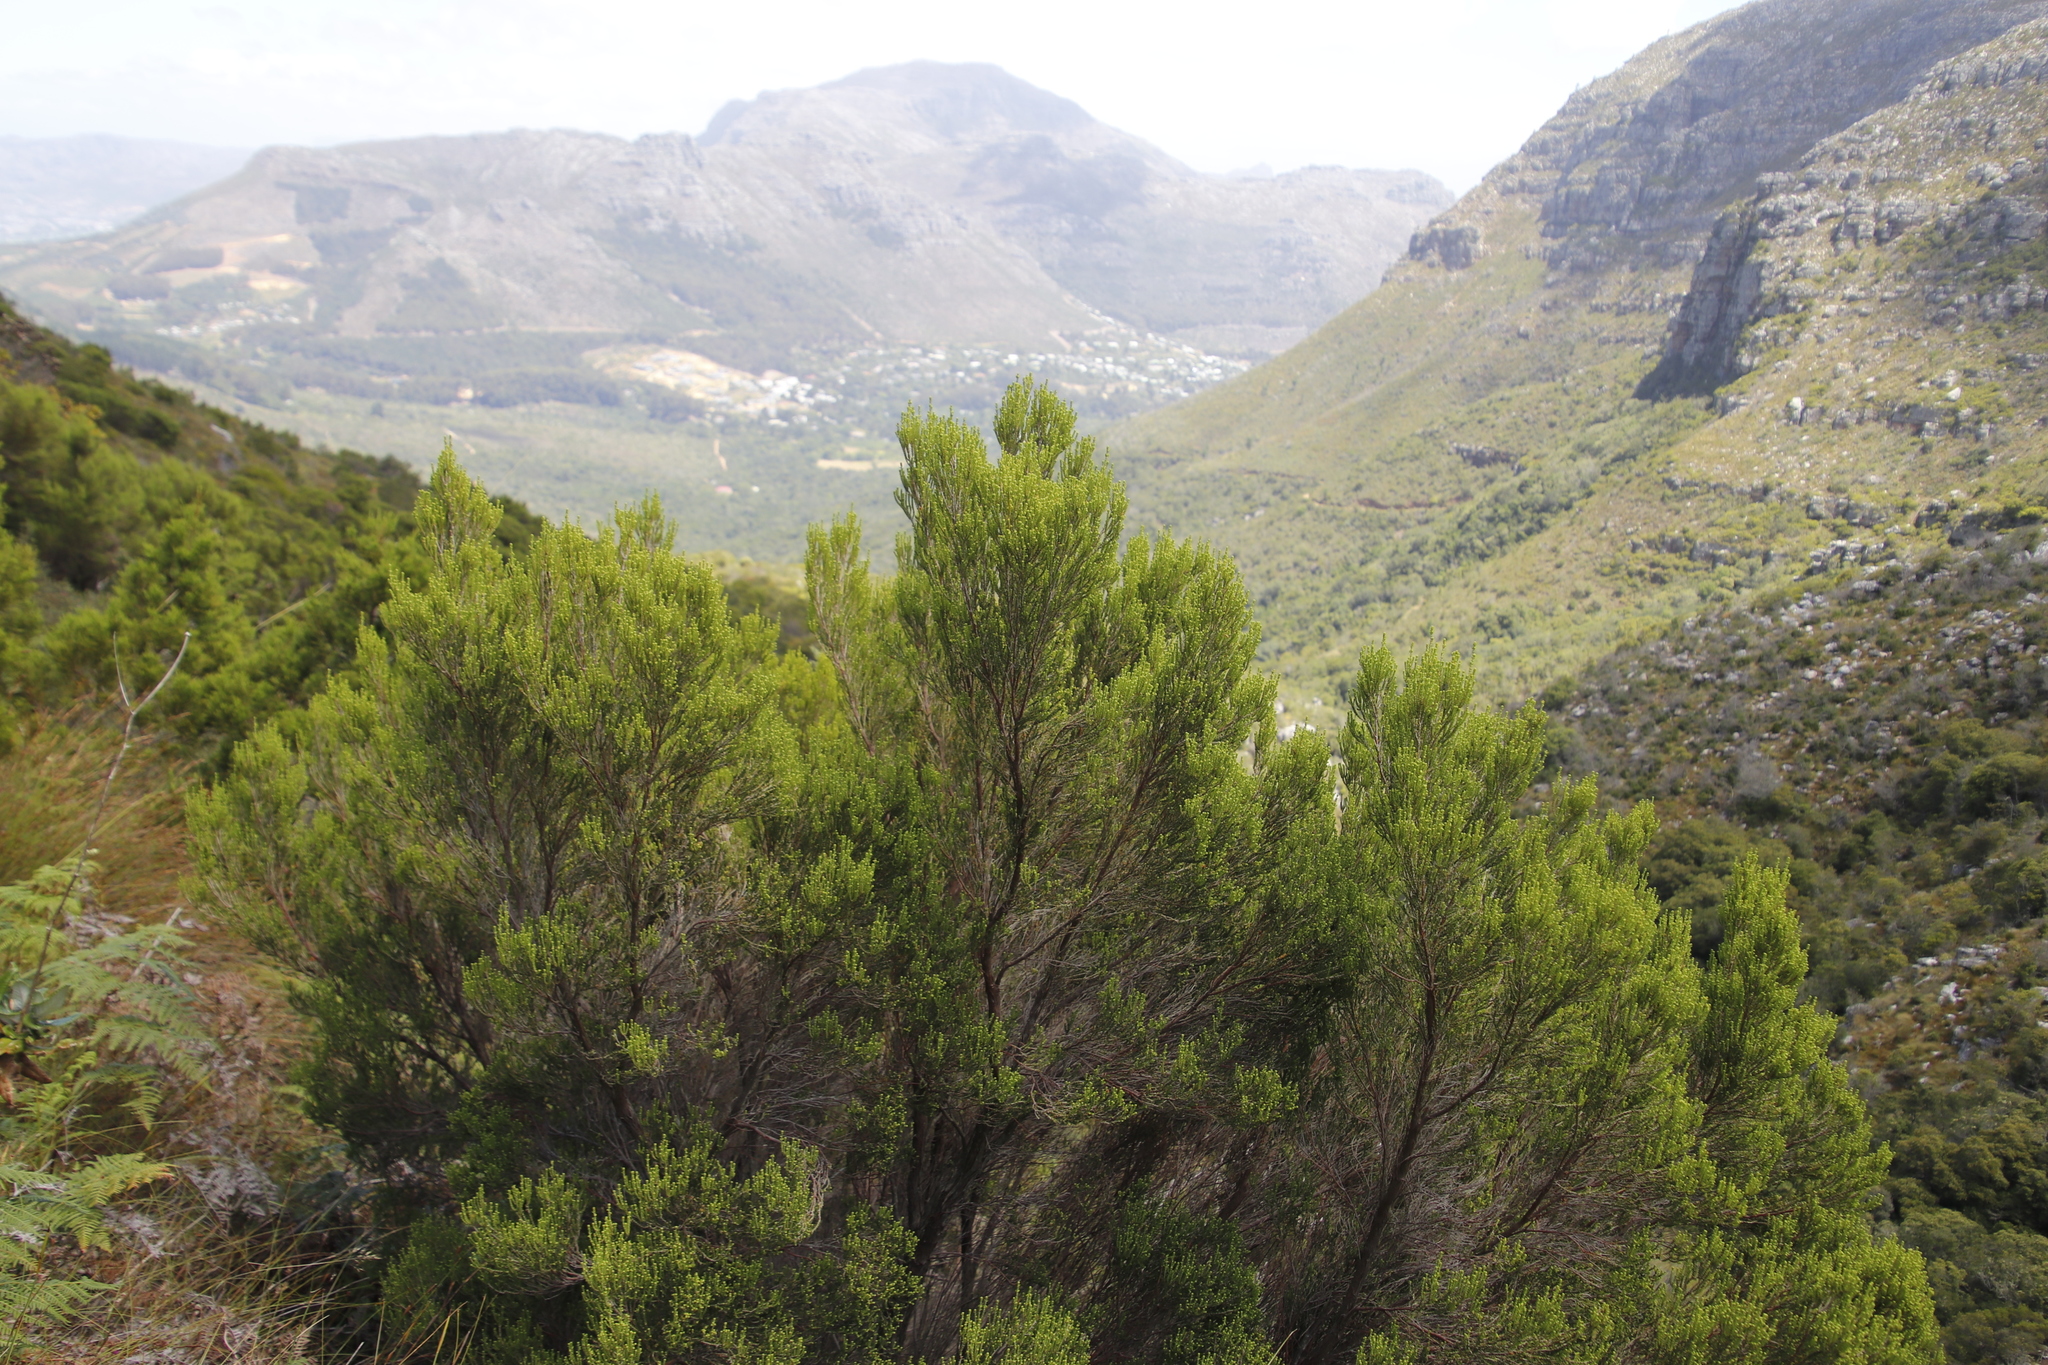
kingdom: Plantae
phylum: Tracheophyta
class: Magnoliopsida
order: Ericales
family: Ericaceae
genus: Erica
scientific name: Erica tristis
